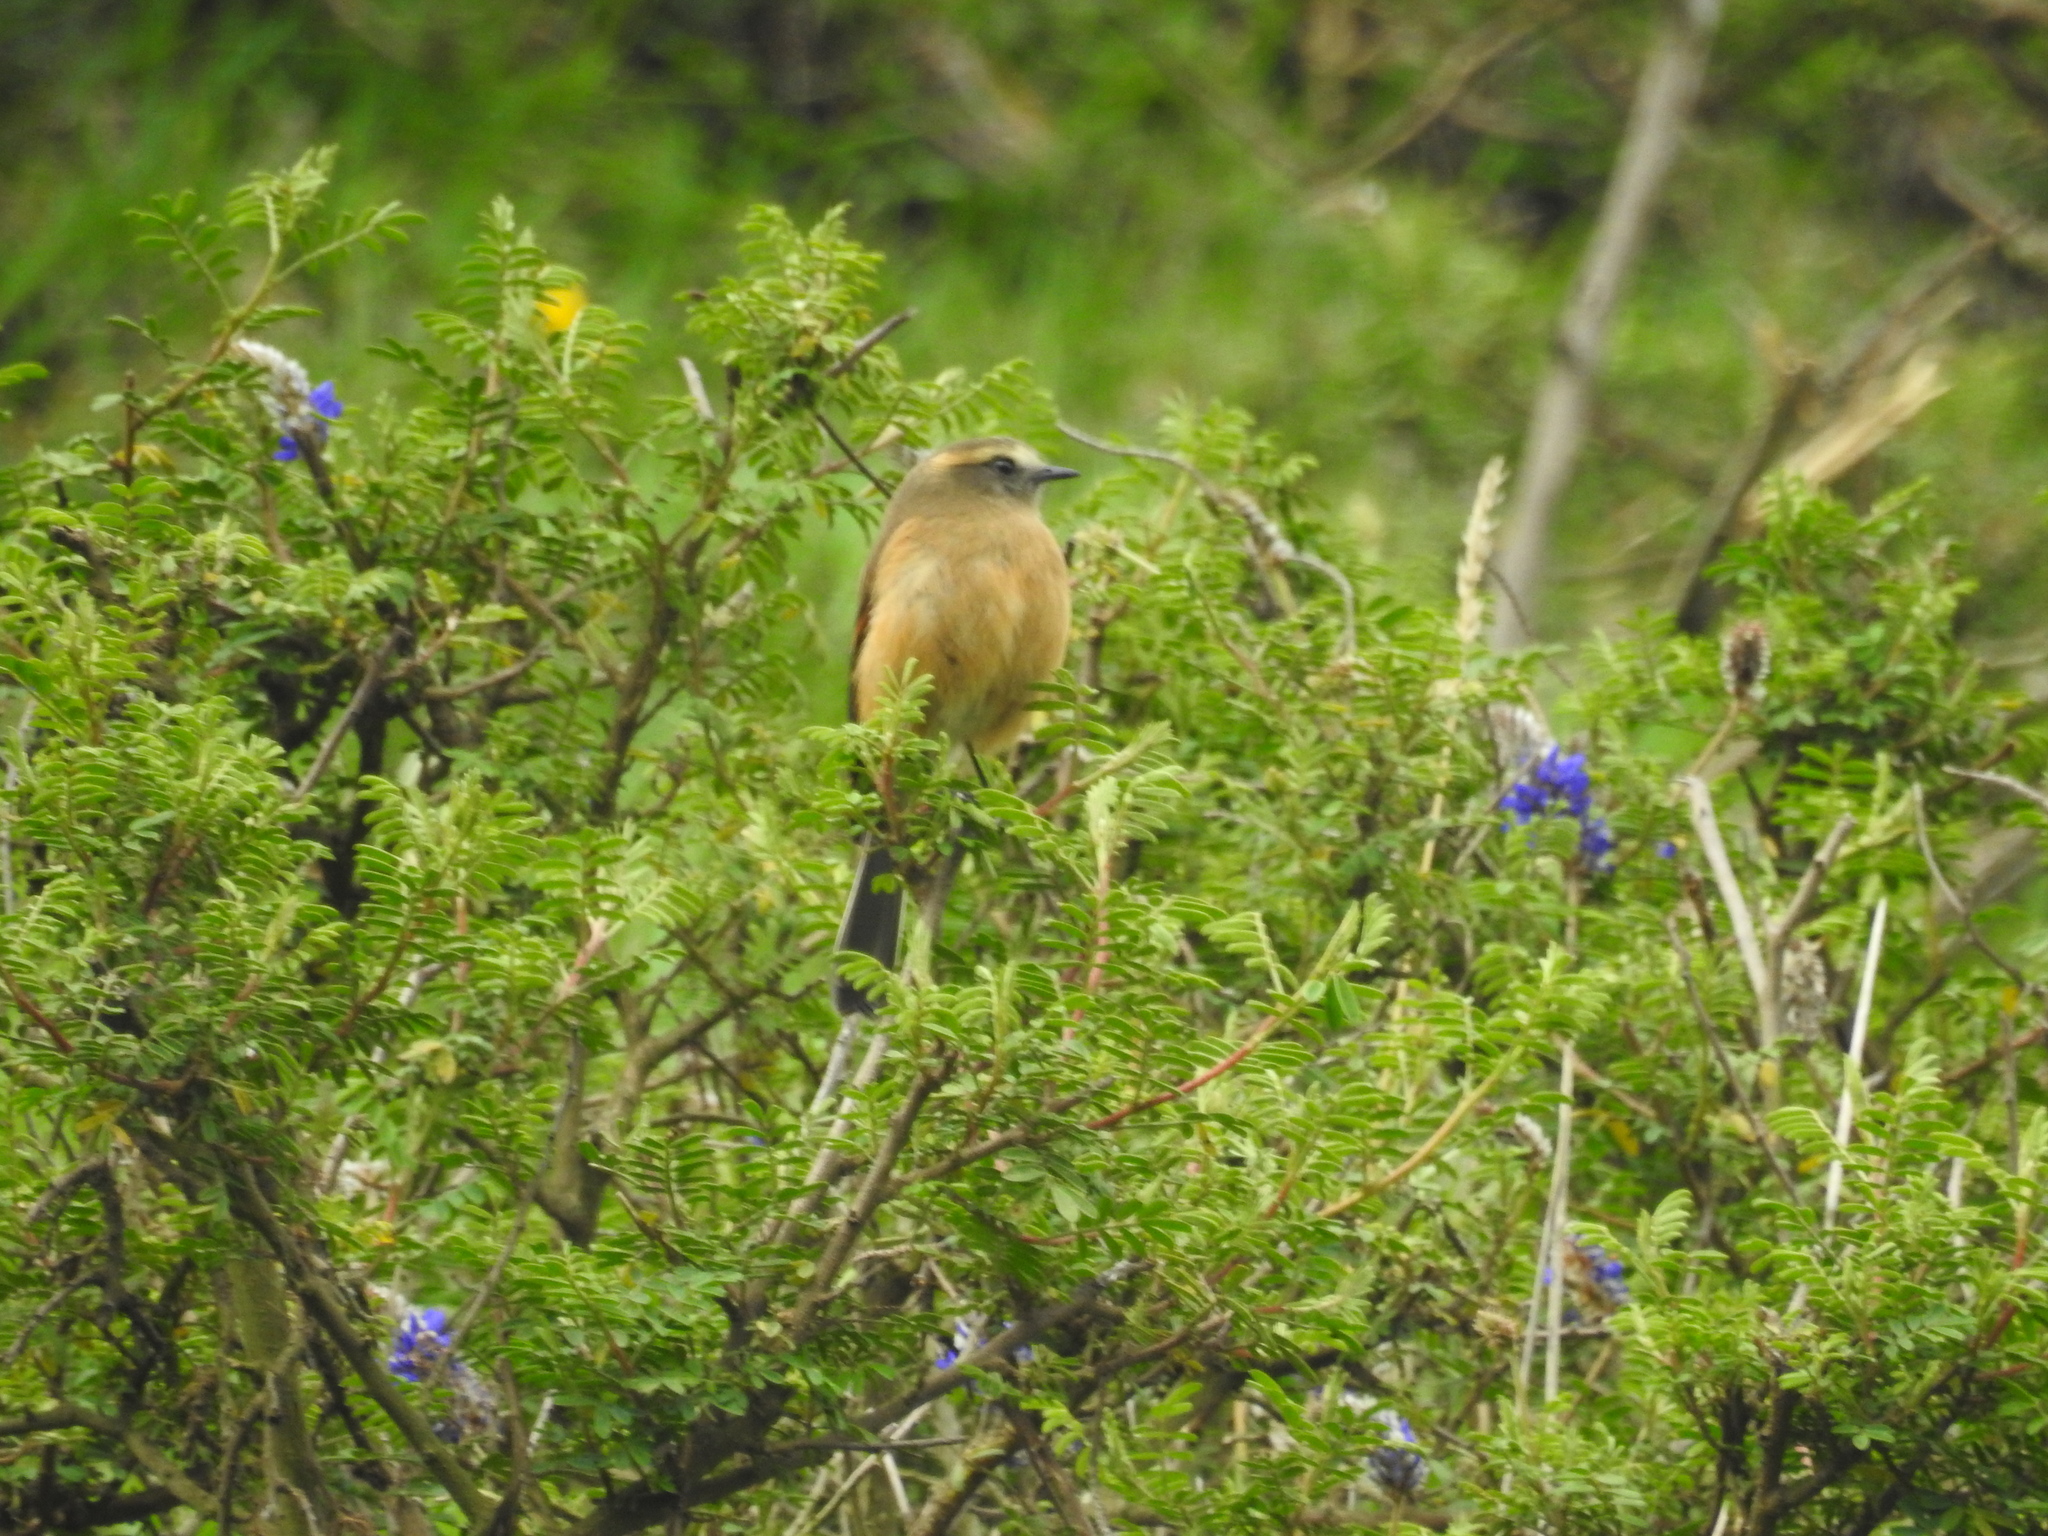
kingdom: Animalia
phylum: Chordata
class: Aves
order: Passeriformes
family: Tyrannidae
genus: Ochthoeca
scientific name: Ochthoeca fumicolor
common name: Brown-backed chat-tyrant
